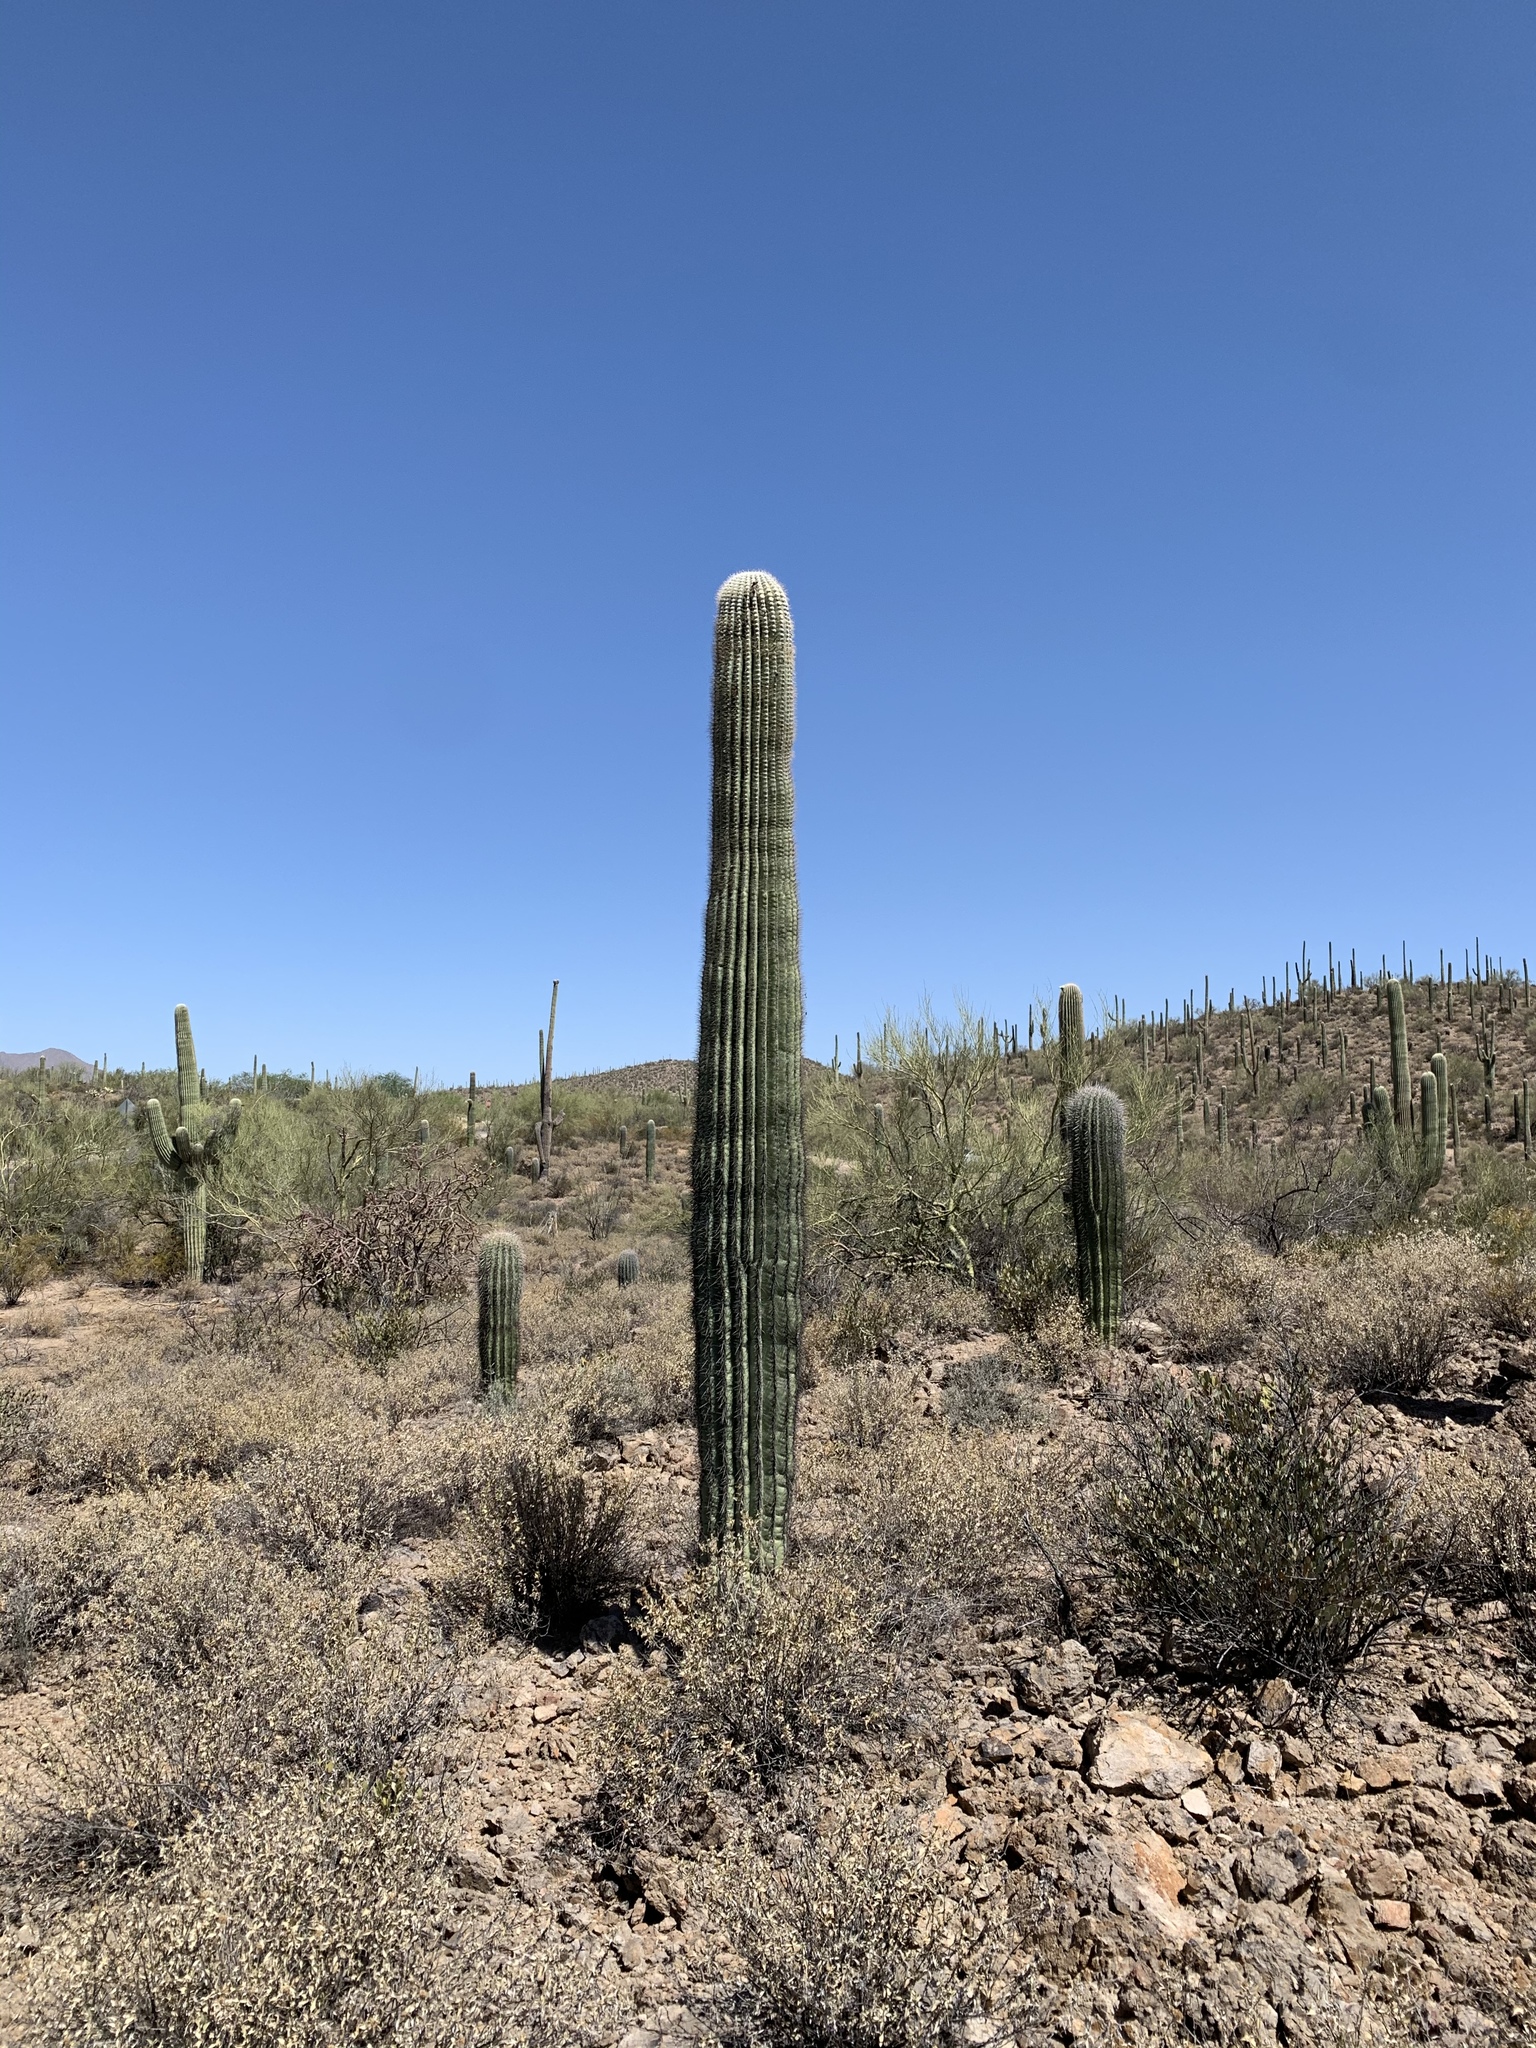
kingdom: Plantae
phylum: Tracheophyta
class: Magnoliopsida
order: Caryophyllales
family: Cactaceae
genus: Carnegiea
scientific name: Carnegiea gigantea
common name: Saguaro
